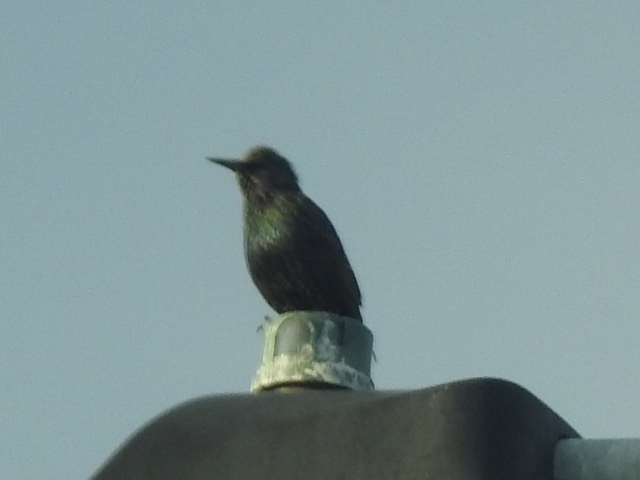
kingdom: Animalia
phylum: Chordata
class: Aves
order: Passeriformes
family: Sturnidae
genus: Sturnus
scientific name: Sturnus vulgaris
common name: Common starling
